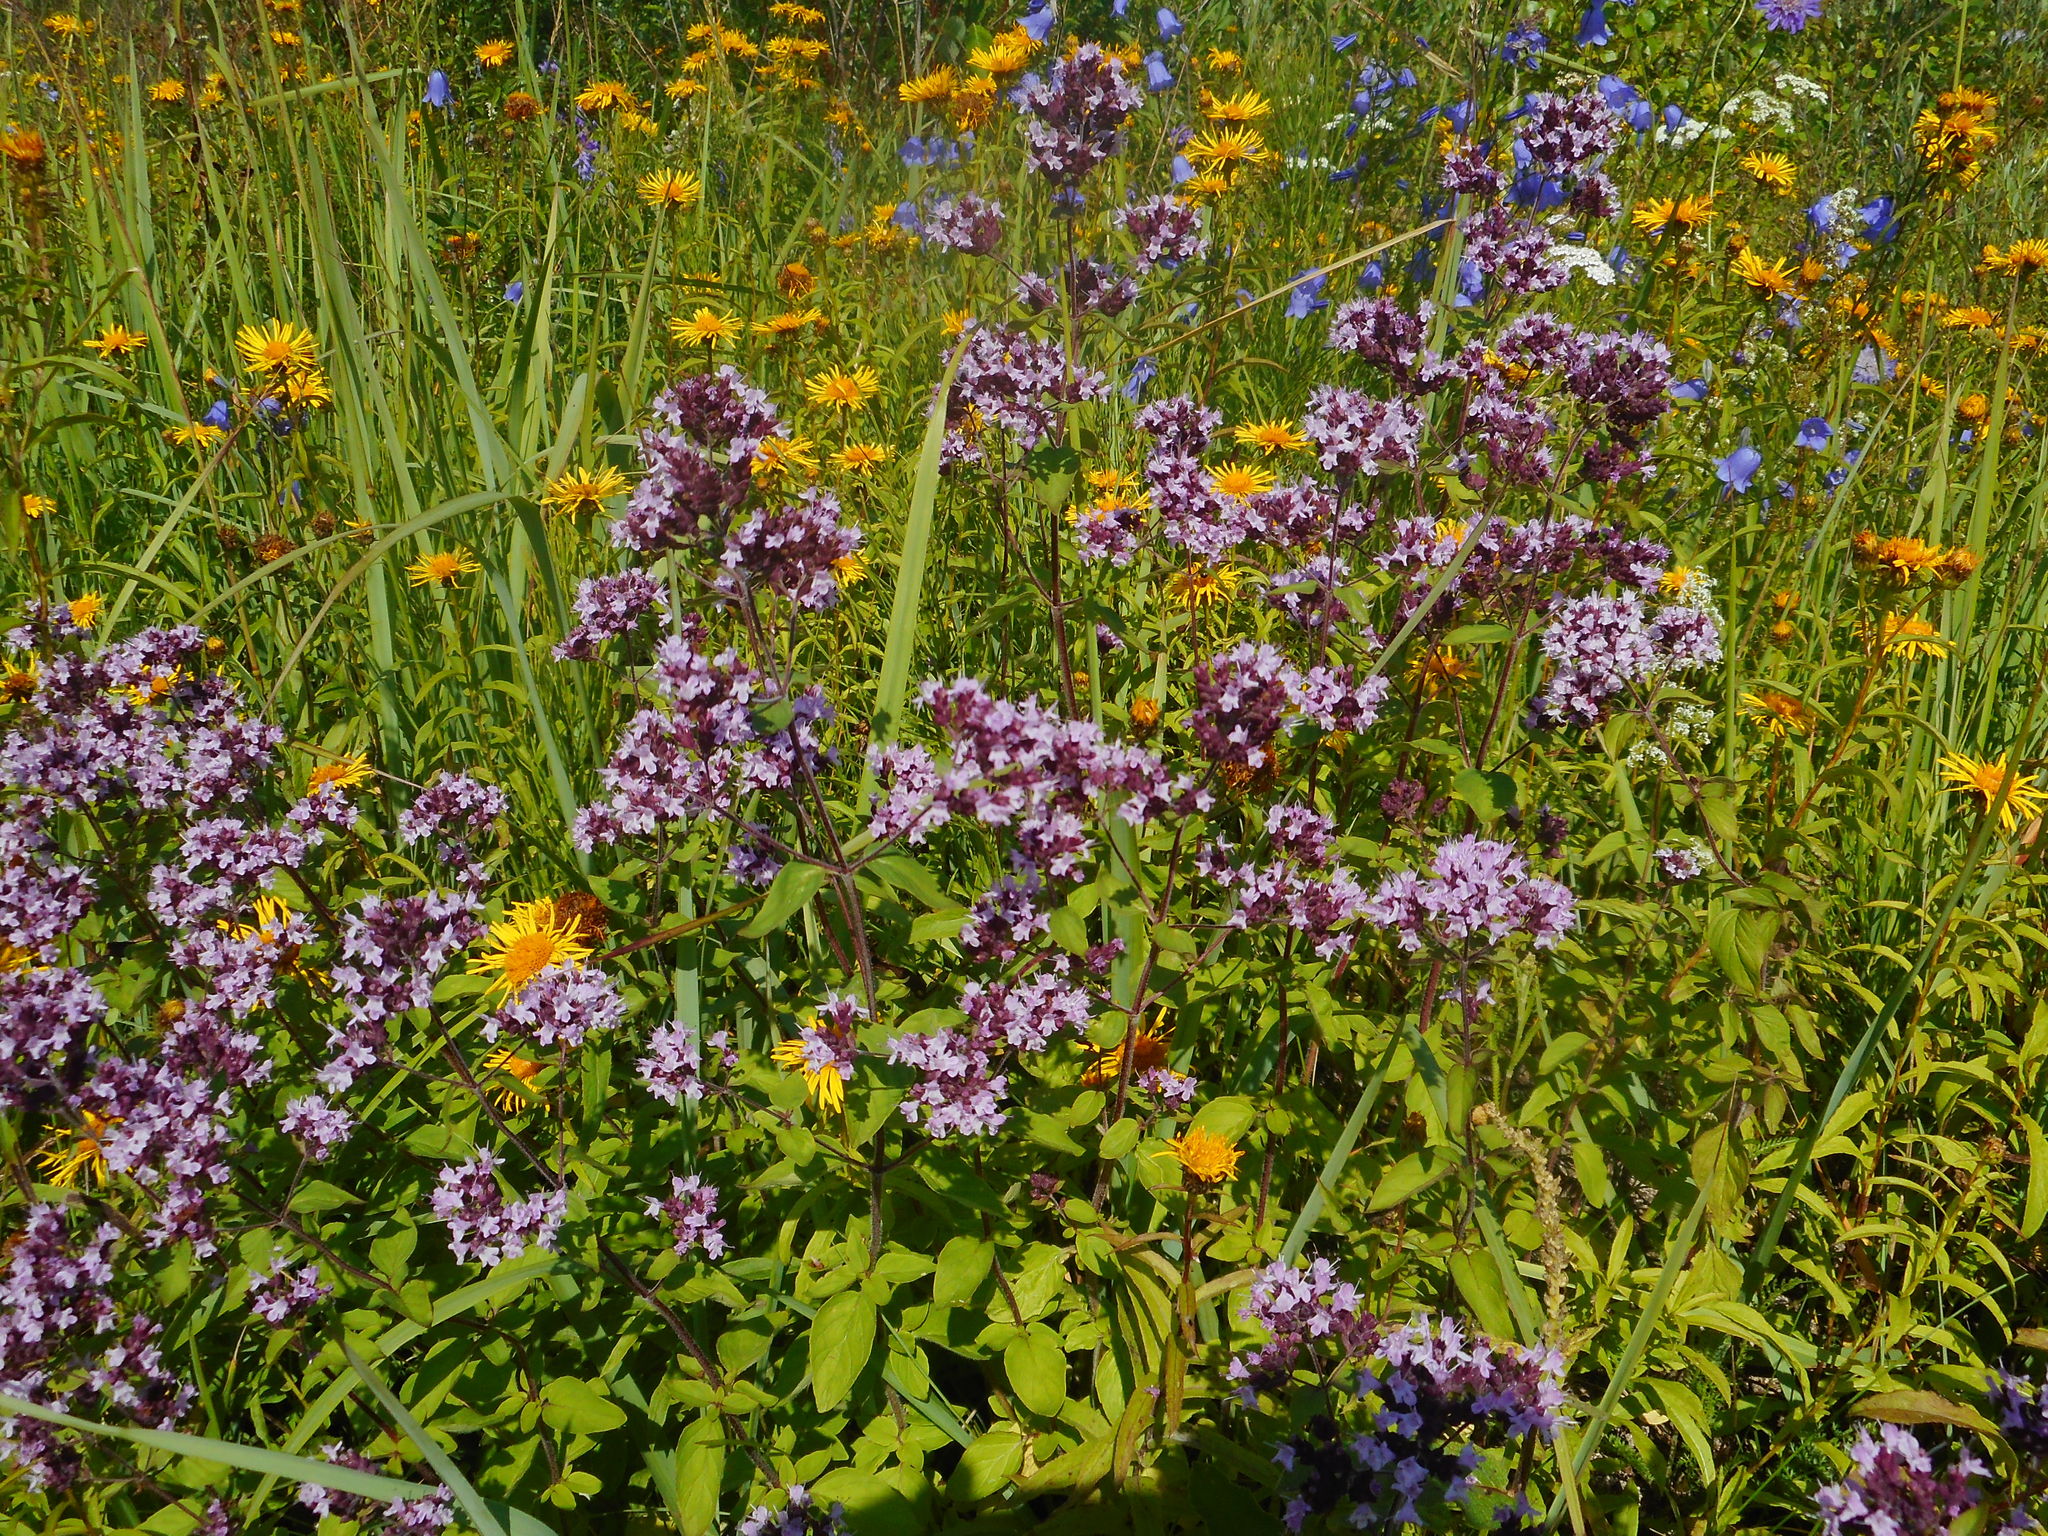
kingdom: Plantae
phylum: Tracheophyta
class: Magnoliopsida
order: Lamiales
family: Lamiaceae
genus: Origanum
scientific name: Origanum vulgare
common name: Wild marjoram
